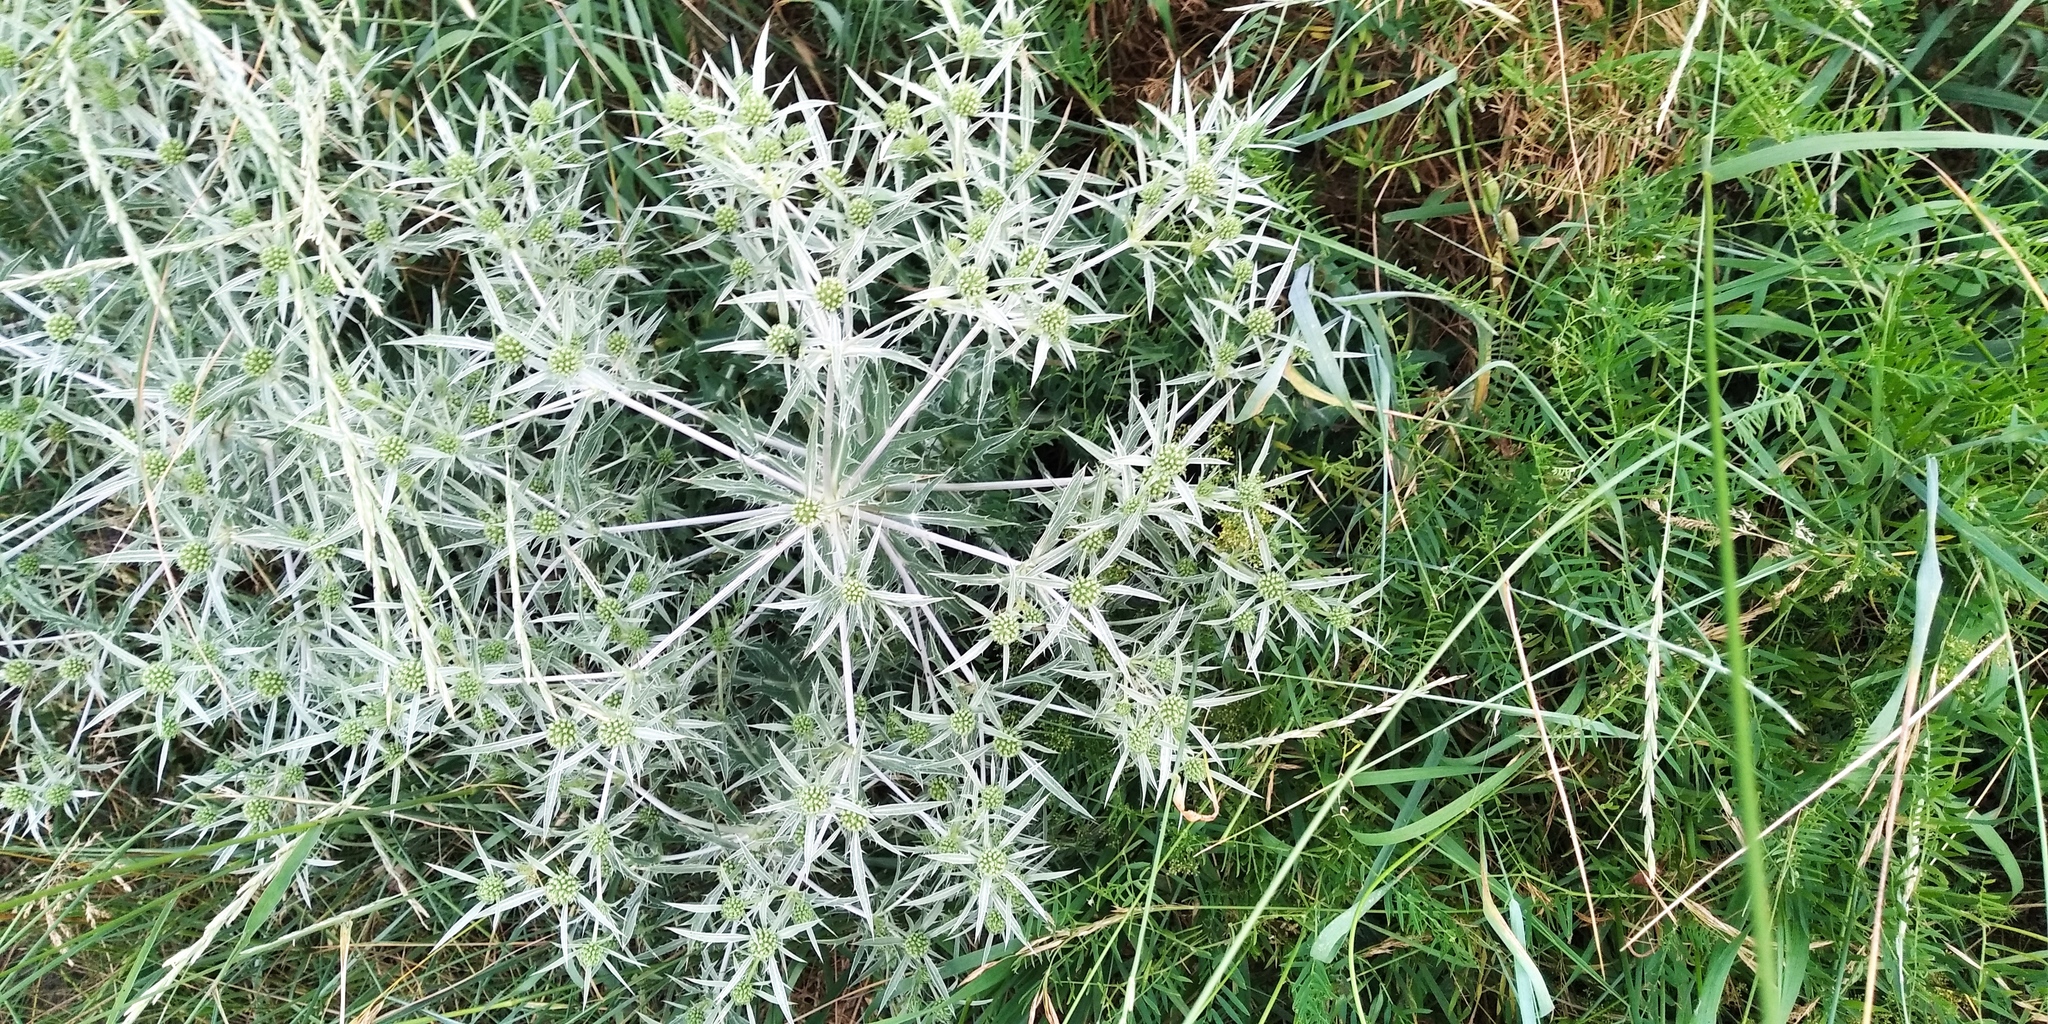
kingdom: Plantae
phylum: Tracheophyta
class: Magnoliopsida
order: Apiales
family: Apiaceae
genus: Eryngium
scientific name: Eryngium campestre
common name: Field eryngo
